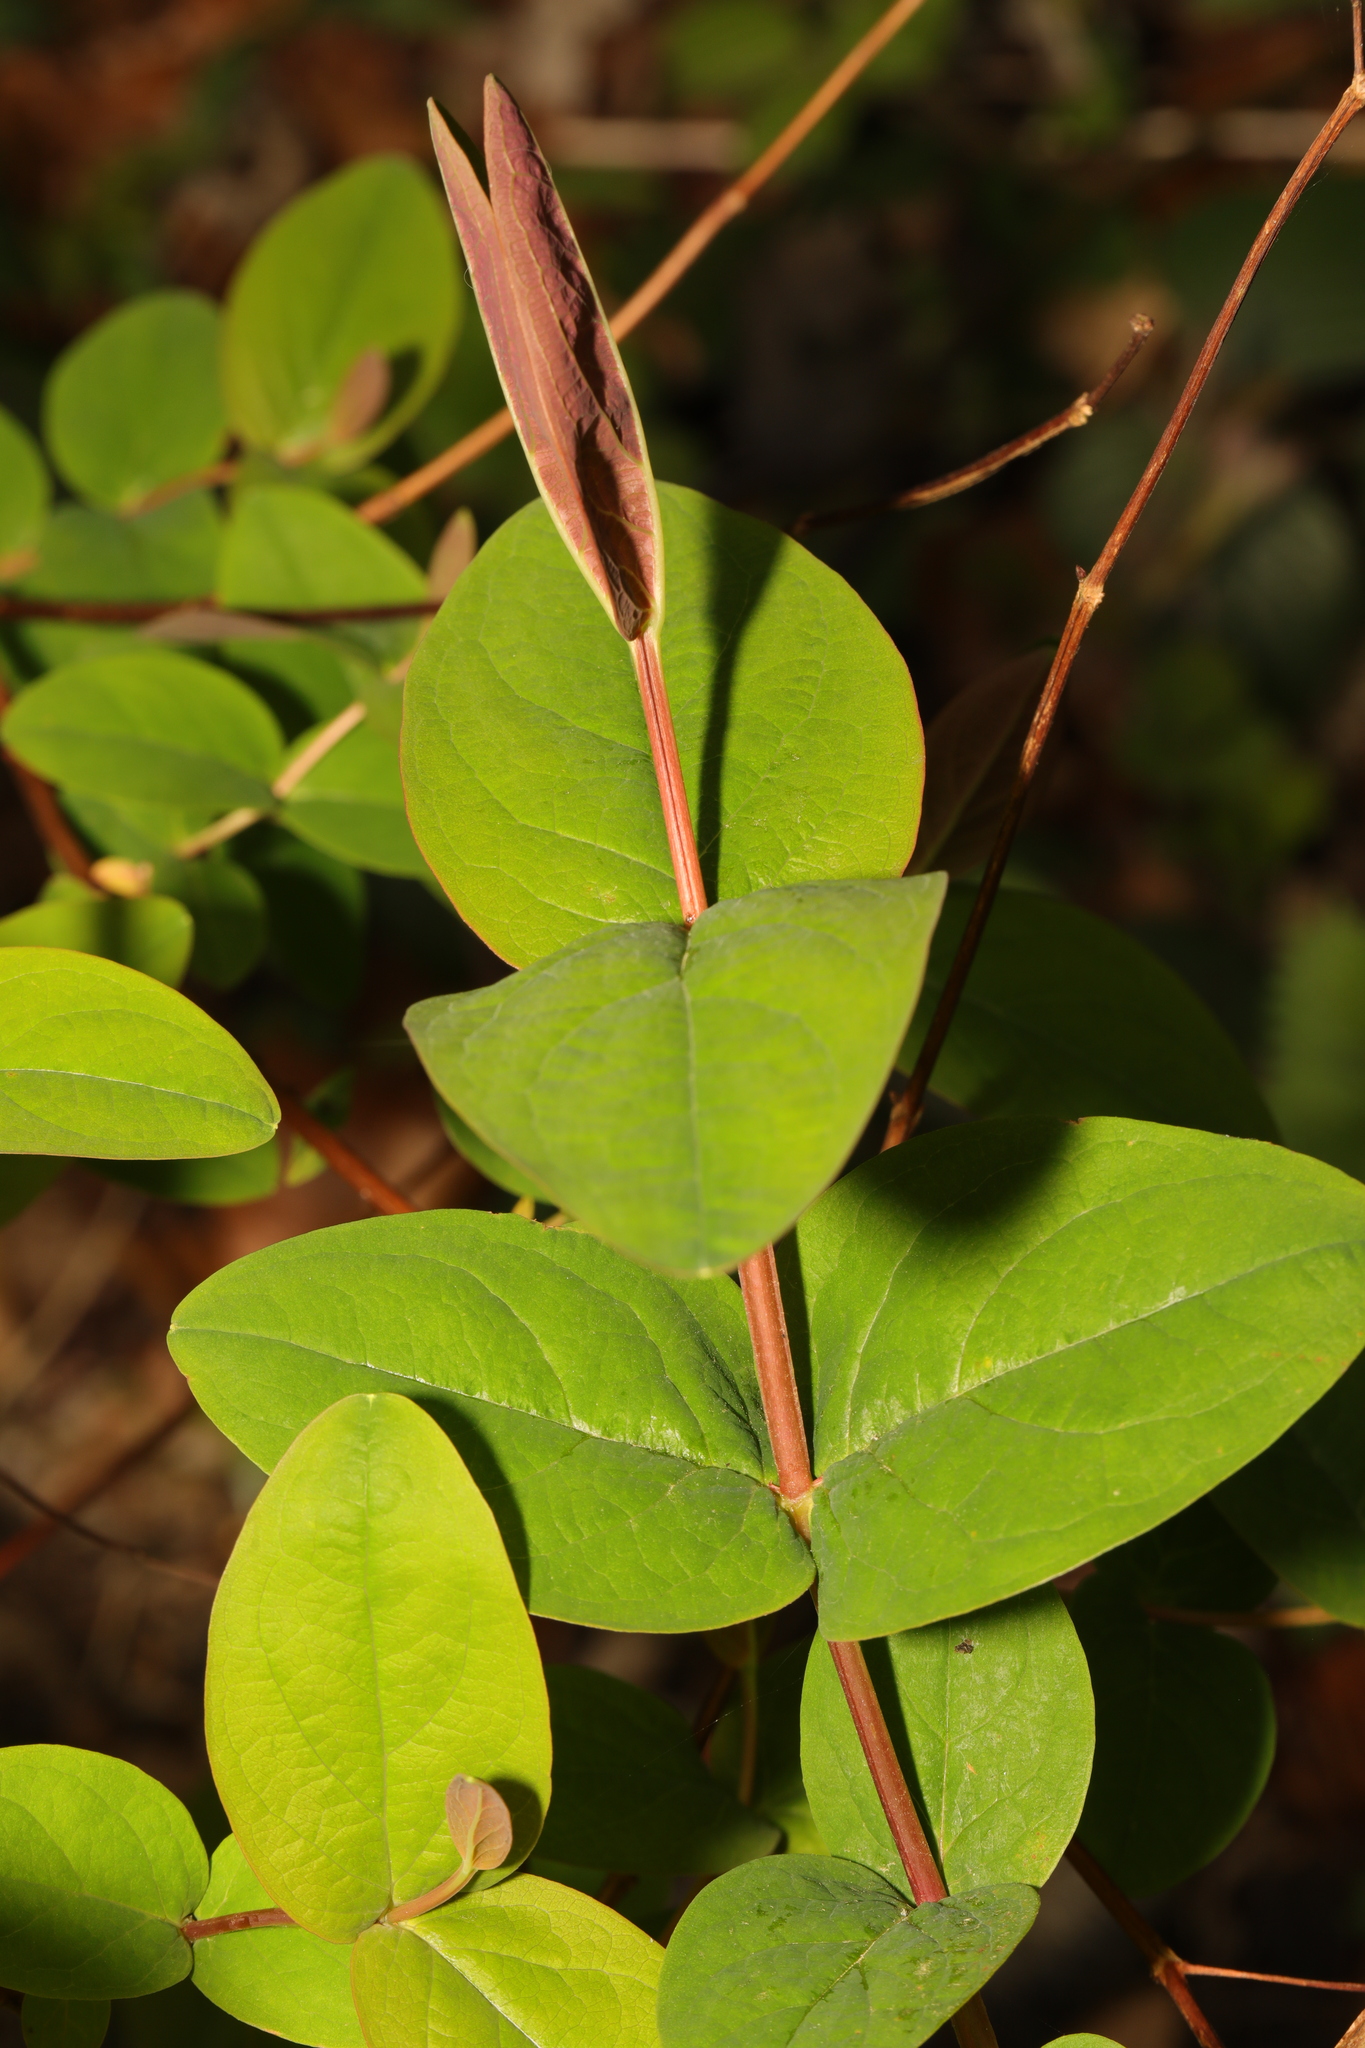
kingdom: Plantae
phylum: Tracheophyta
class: Magnoliopsida
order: Malpighiales
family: Hypericaceae
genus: Hypericum
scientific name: Hypericum androsaemum
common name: Sweet-amber
